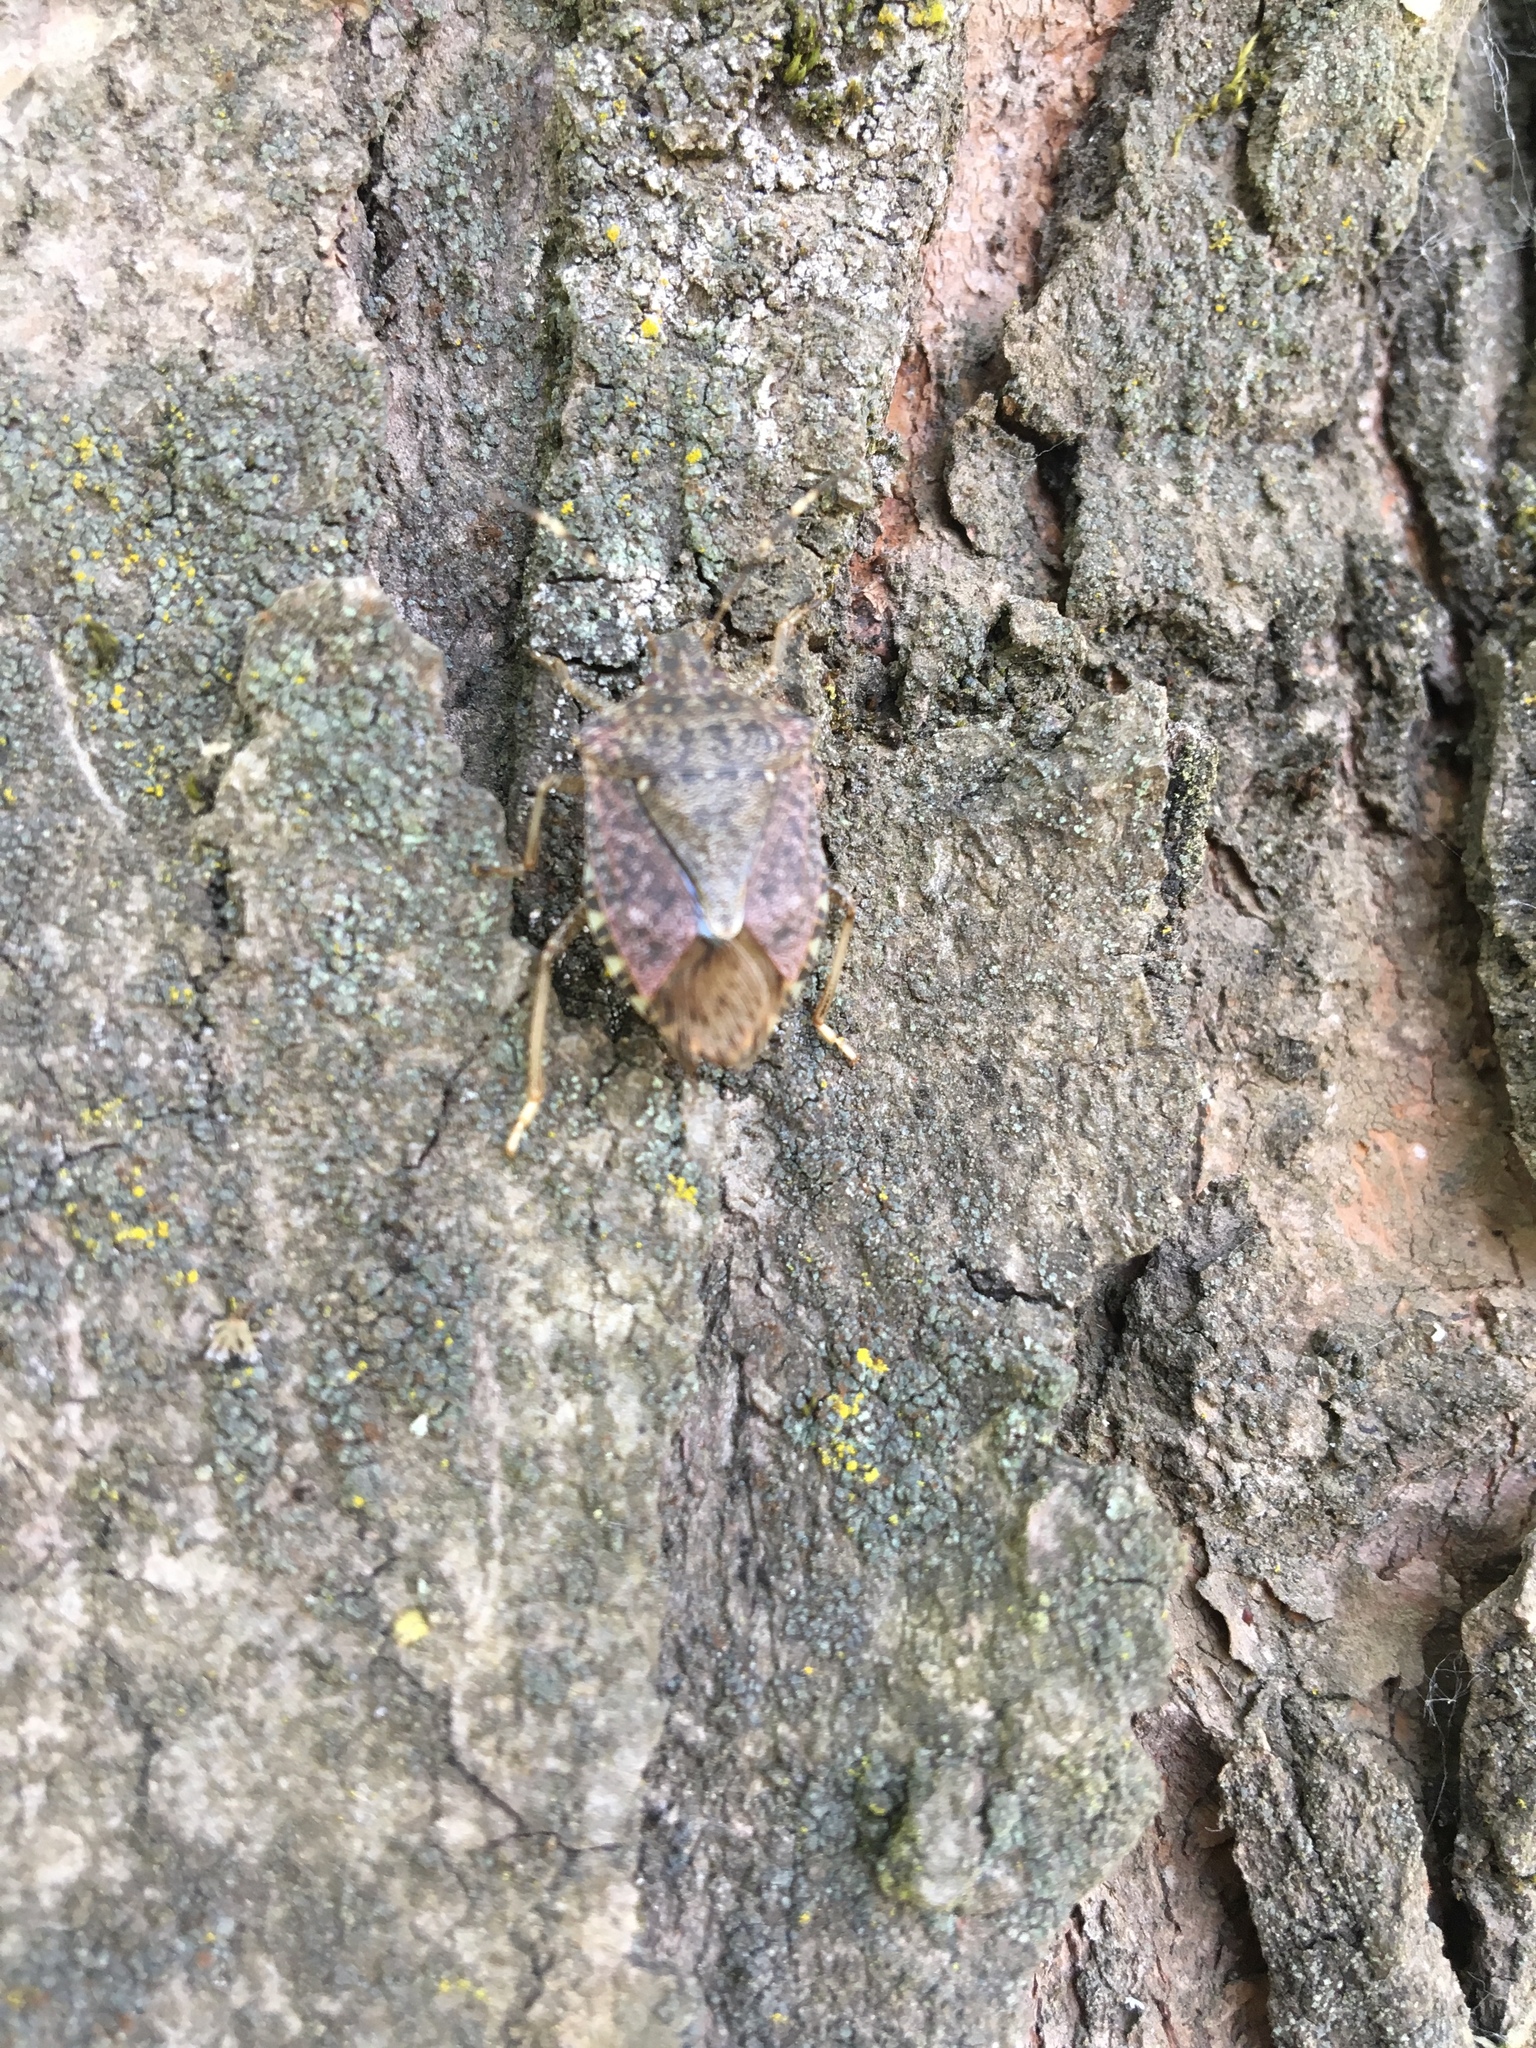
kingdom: Animalia
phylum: Arthropoda
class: Insecta
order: Hemiptera
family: Pentatomidae
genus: Halyomorpha
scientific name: Halyomorpha halys
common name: Brown marmorated stink bug
